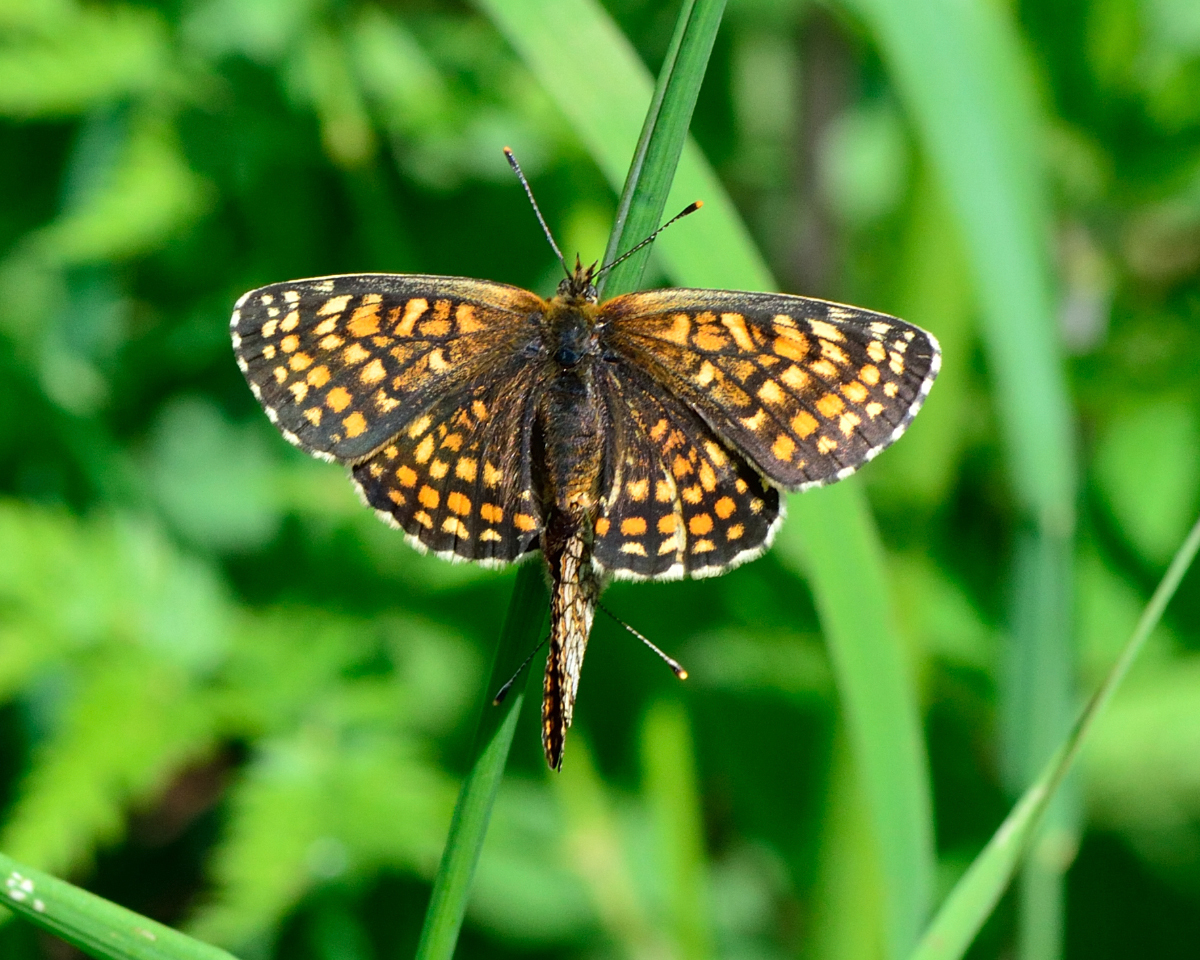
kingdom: Animalia
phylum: Arthropoda
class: Insecta
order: Lepidoptera
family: Nymphalidae
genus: Melitaea
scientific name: Melitaea athalia
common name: Heath fritillary
